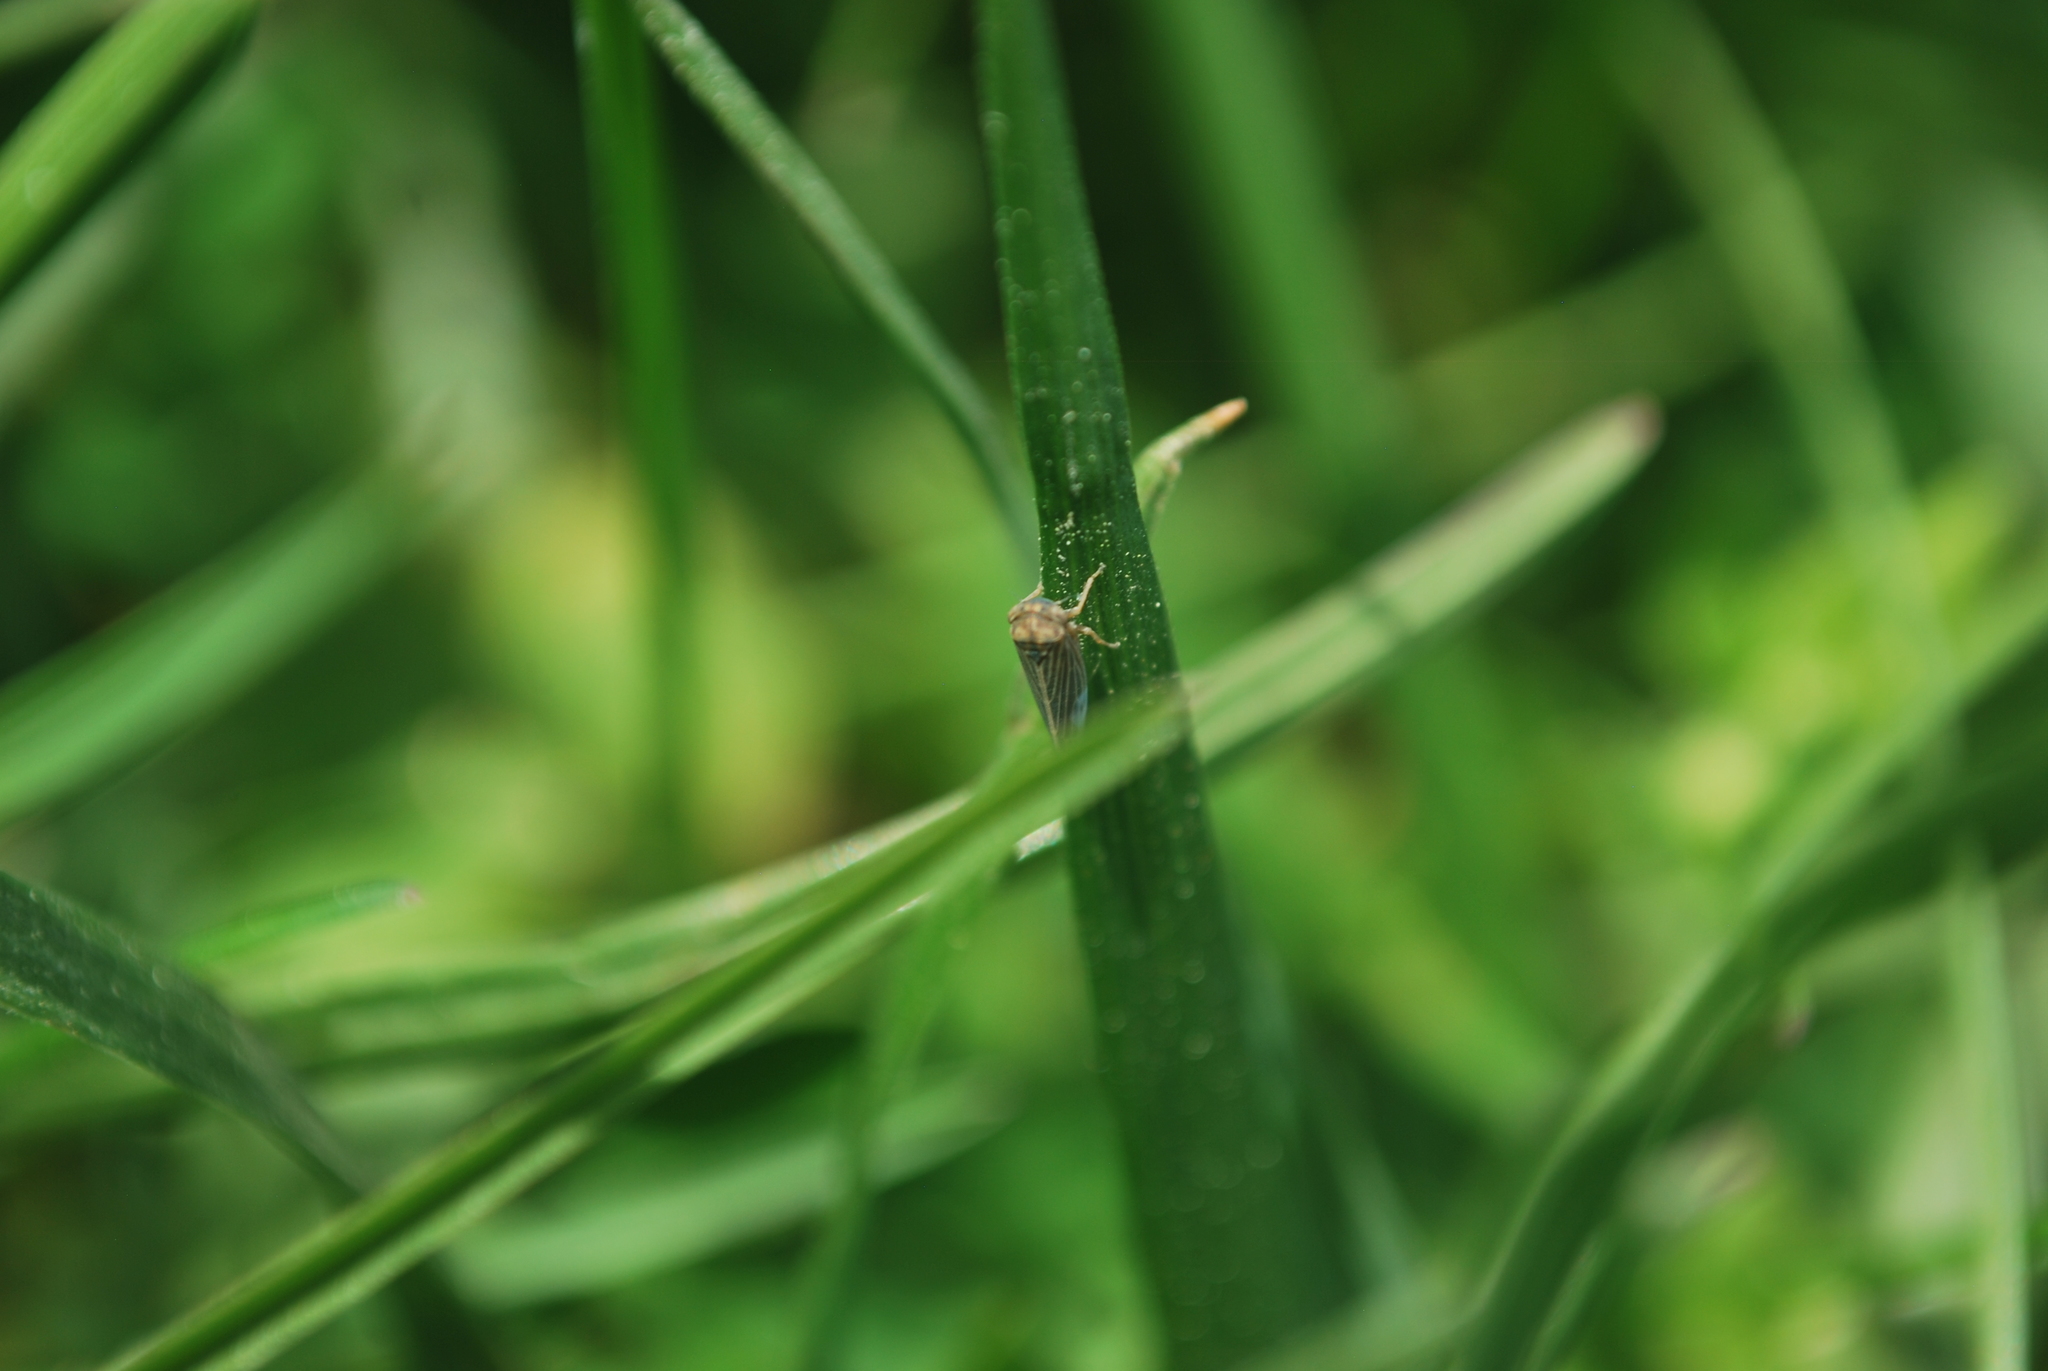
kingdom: Animalia
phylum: Arthropoda
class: Insecta
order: Hemiptera
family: Cicadellidae
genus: Agallia
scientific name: Agallia constricta
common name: The constricted leafhopper
